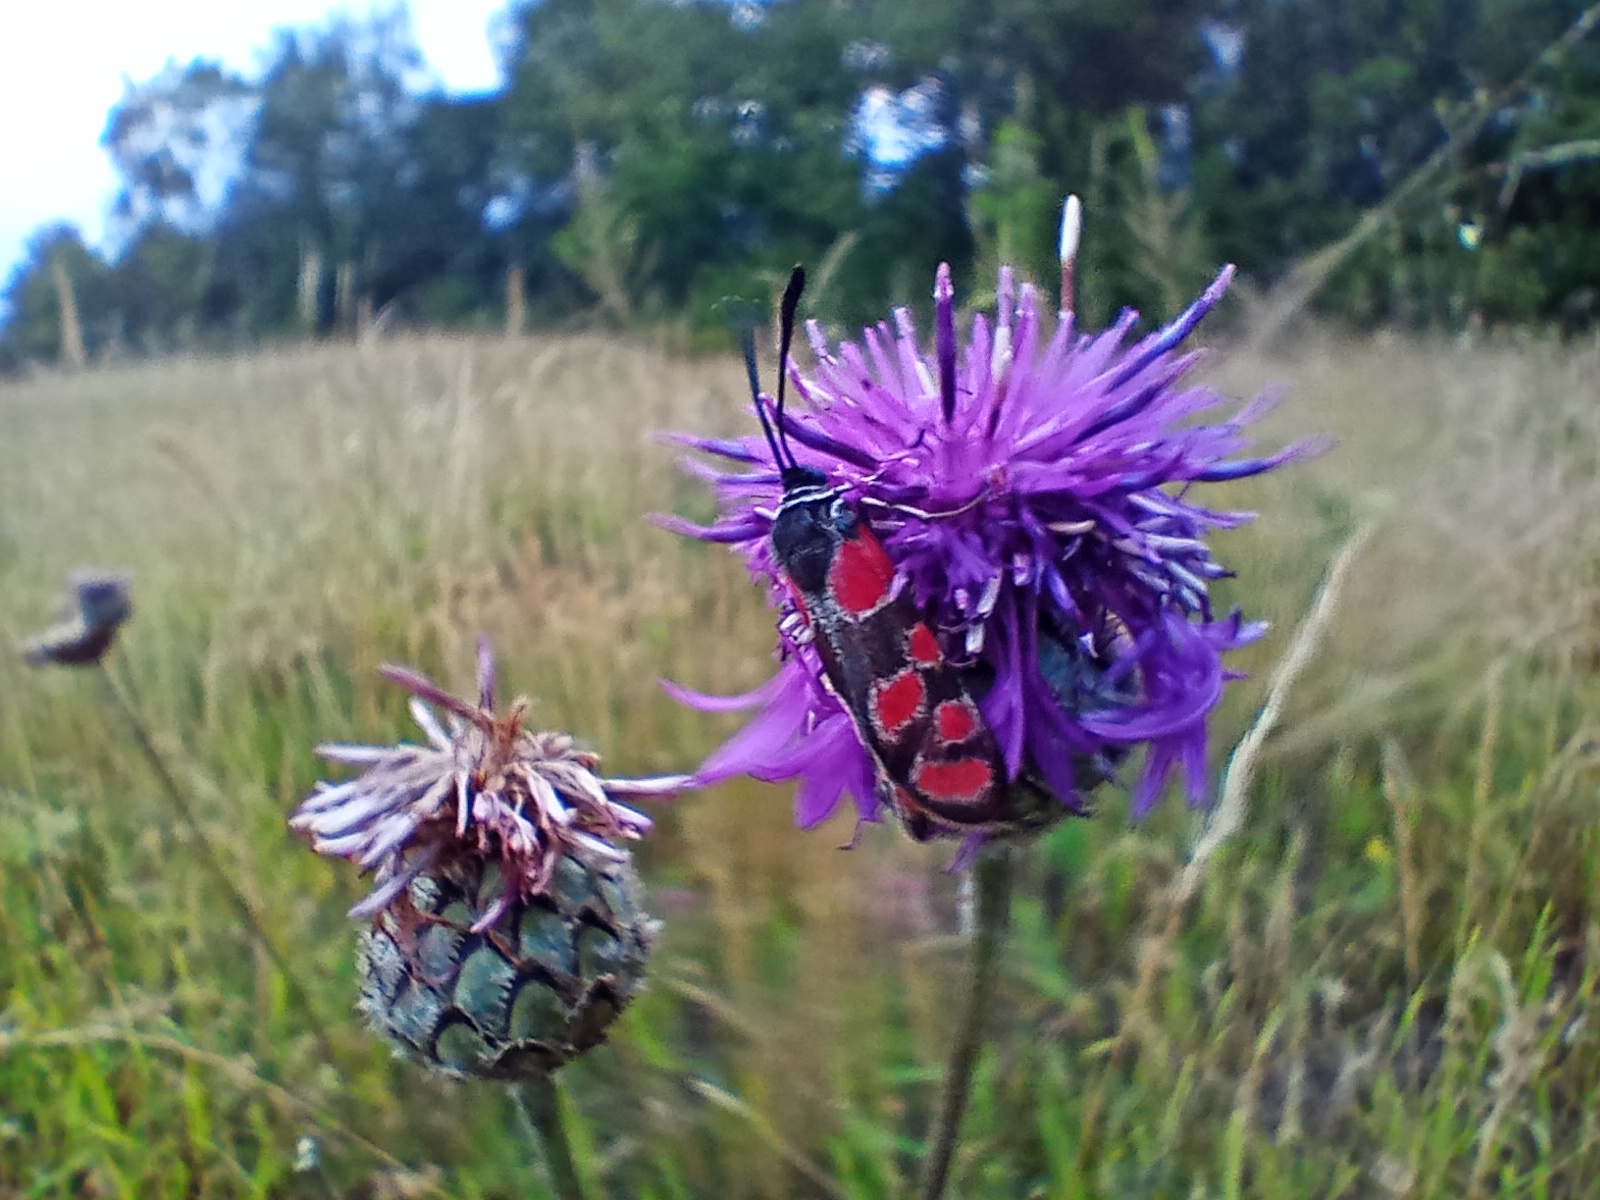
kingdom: Animalia
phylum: Arthropoda
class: Insecta
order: Lepidoptera
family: Zygaenidae
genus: Zygaena
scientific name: Zygaena carniolica
